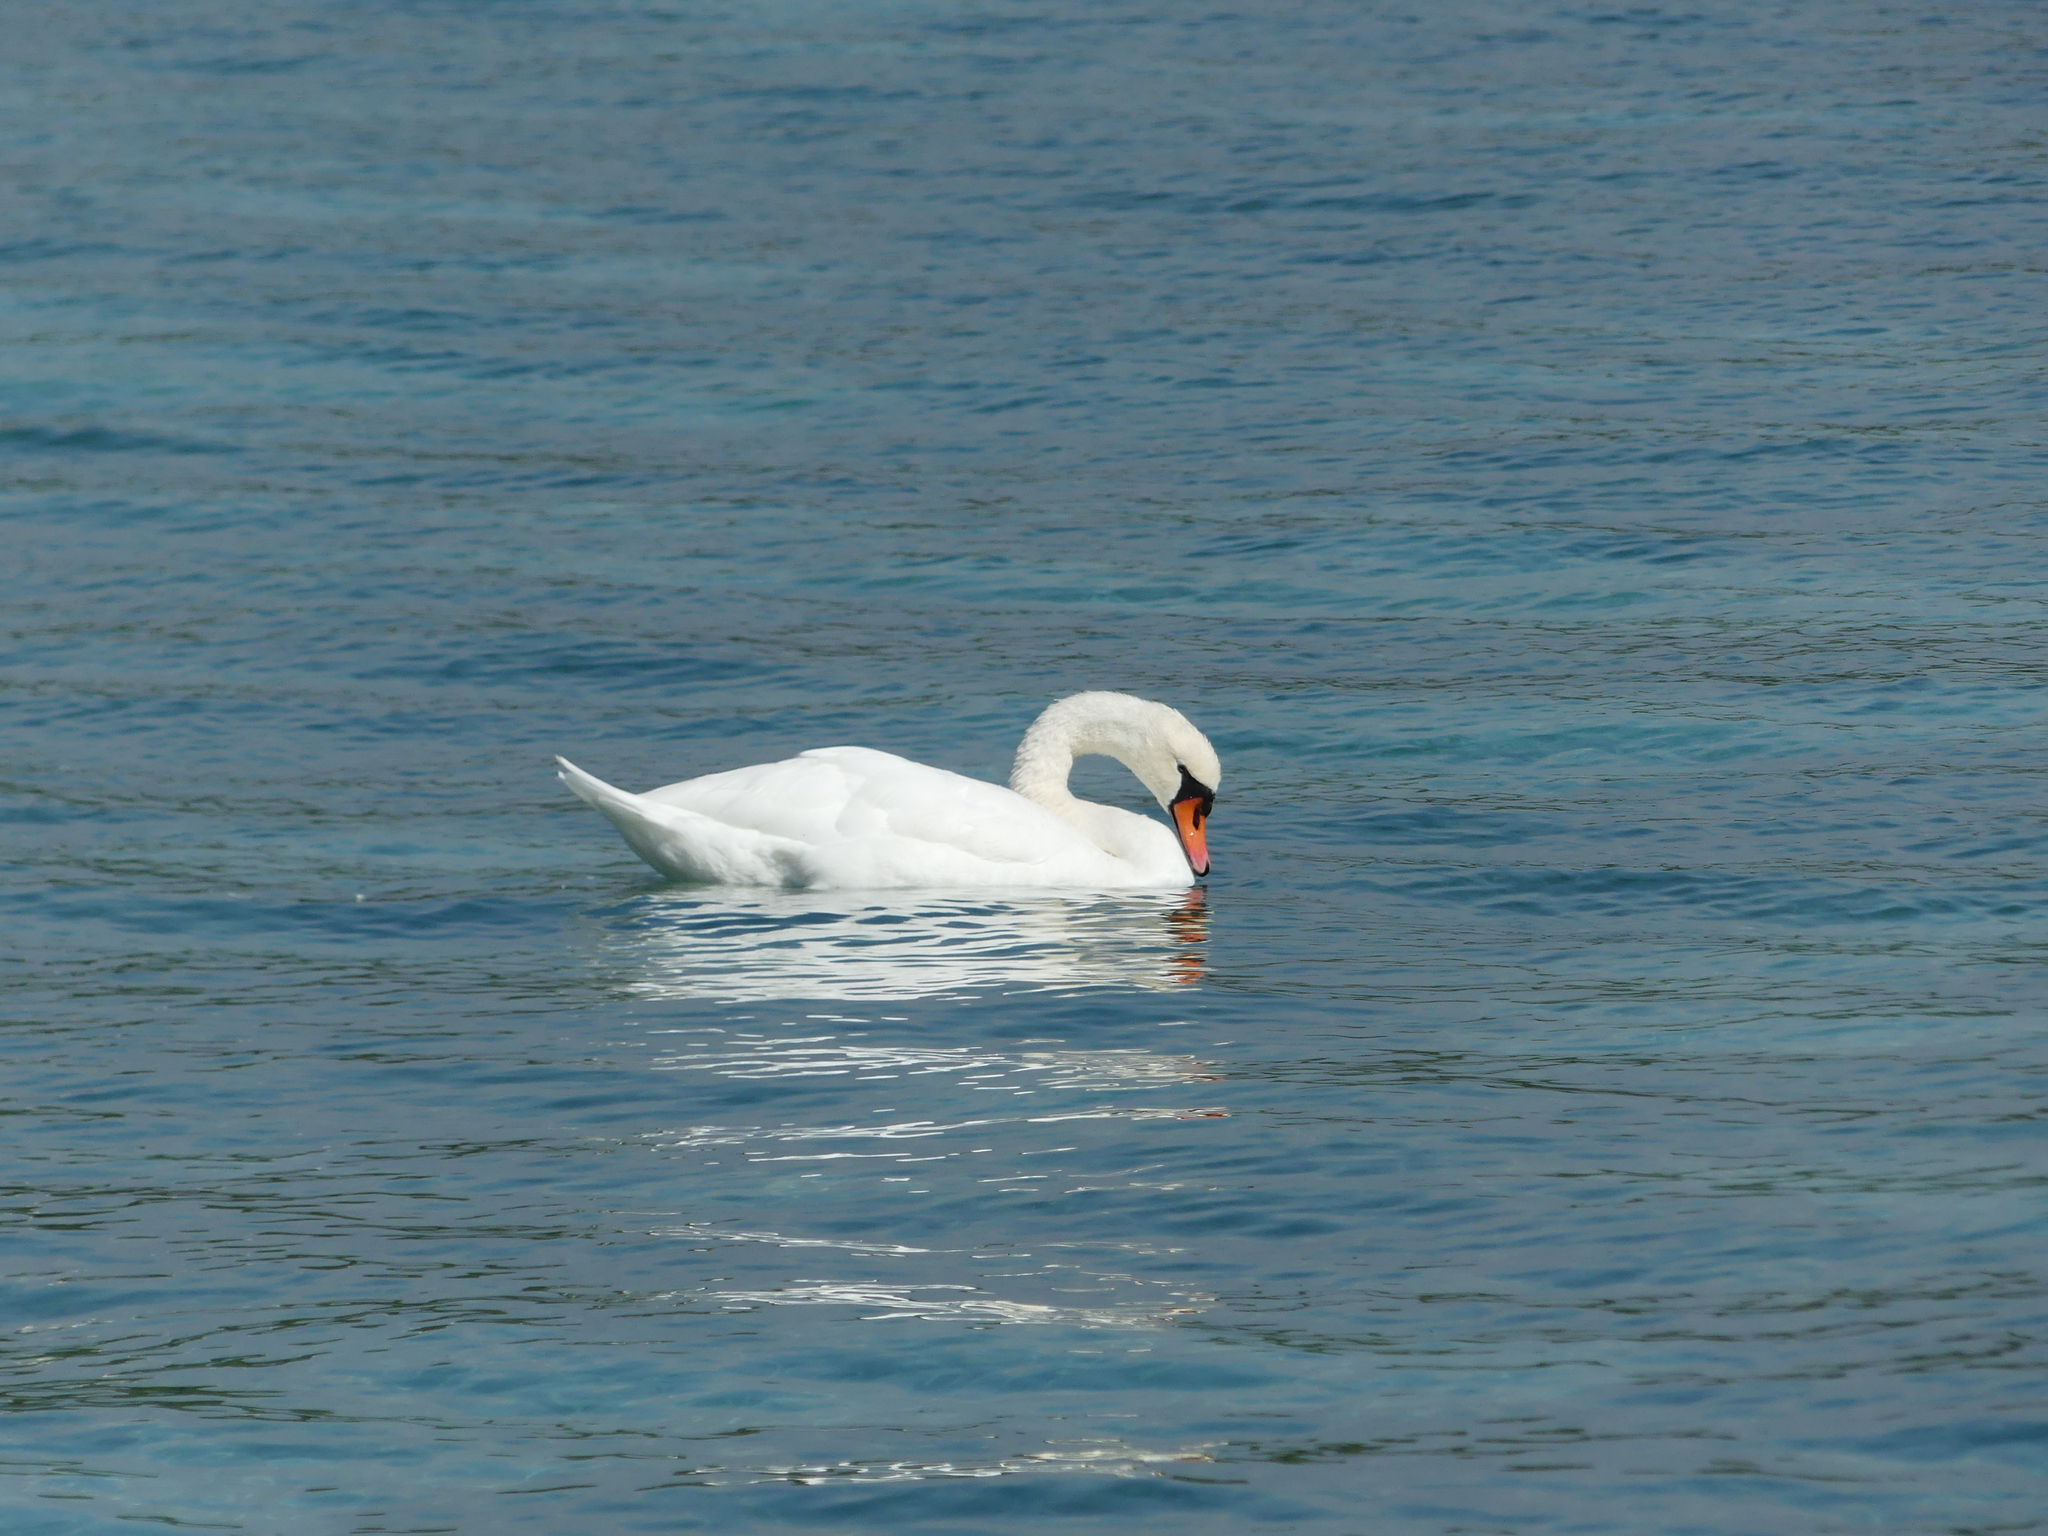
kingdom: Animalia
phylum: Chordata
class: Aves
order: Anseriformes
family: Anatidae
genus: Cygnus
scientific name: Cygnus olor
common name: Mute swan
